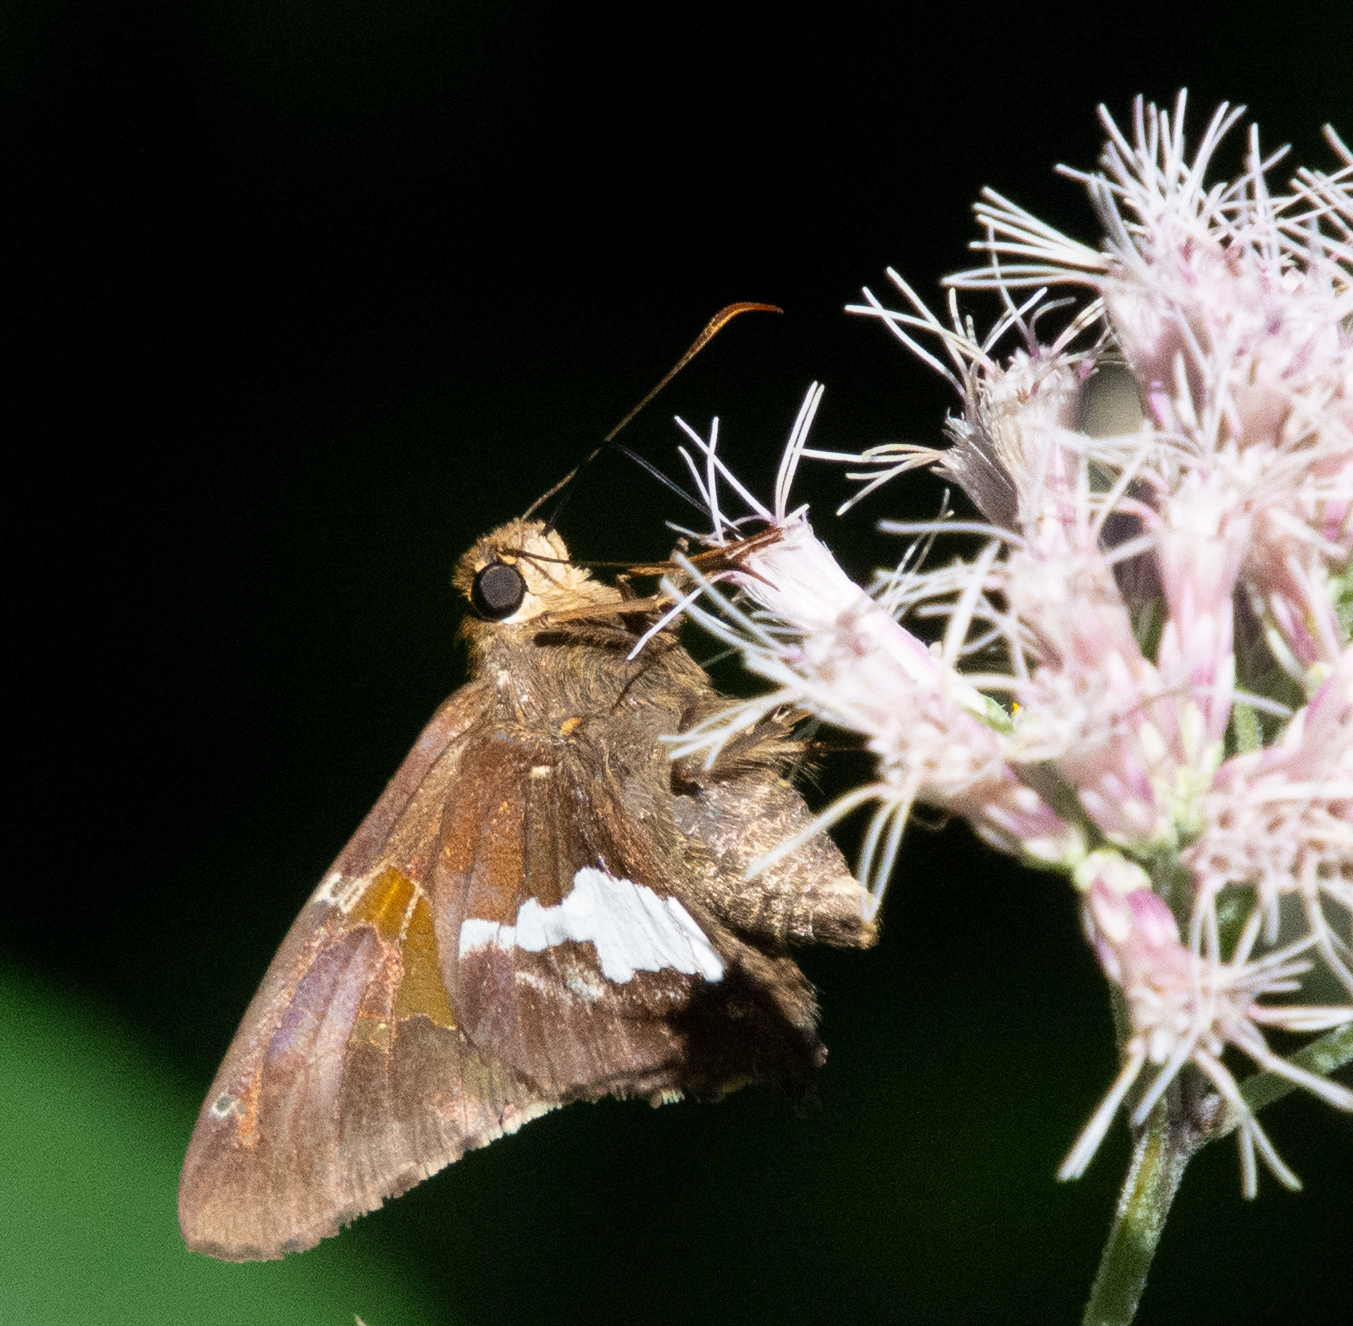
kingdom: Animalia
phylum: Arthropoda
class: Insecta
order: Lepidoptera
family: Hesperiidae
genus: Epargyreus
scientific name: Epargyreus clarus
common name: Silver-spotted skipper
